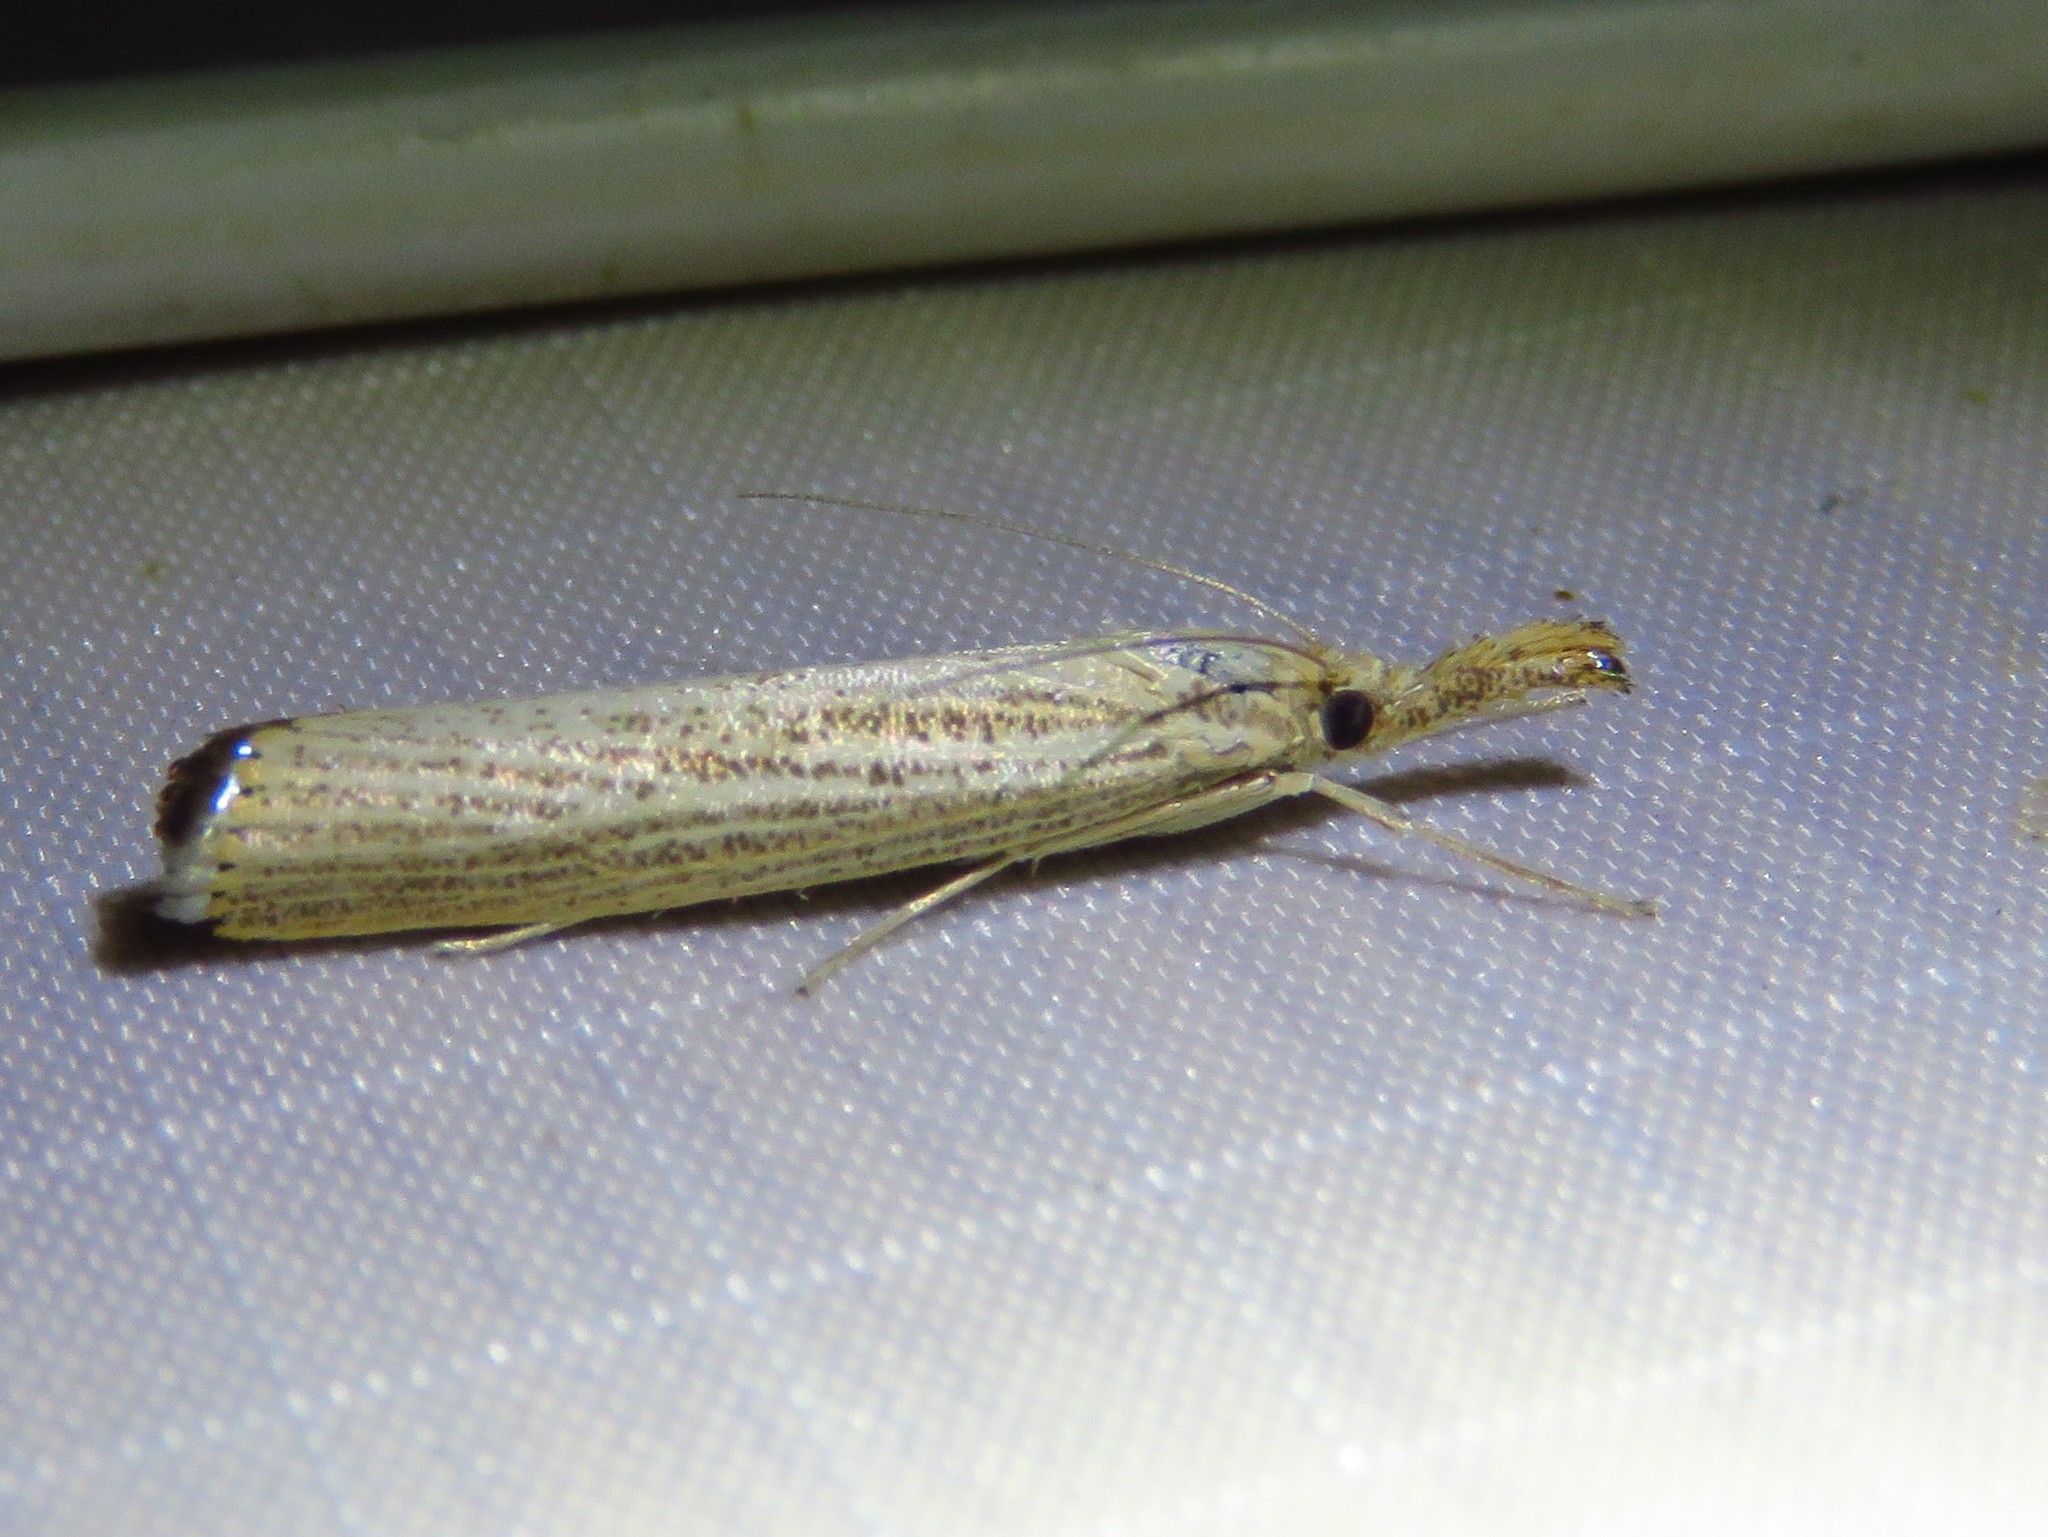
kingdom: Animalia
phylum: Arthropoda
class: Insecta
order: Lepidoptera
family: Crambidae
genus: Agriphila
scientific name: Agriphila vulgivagellus
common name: Vagabond crambus moth
